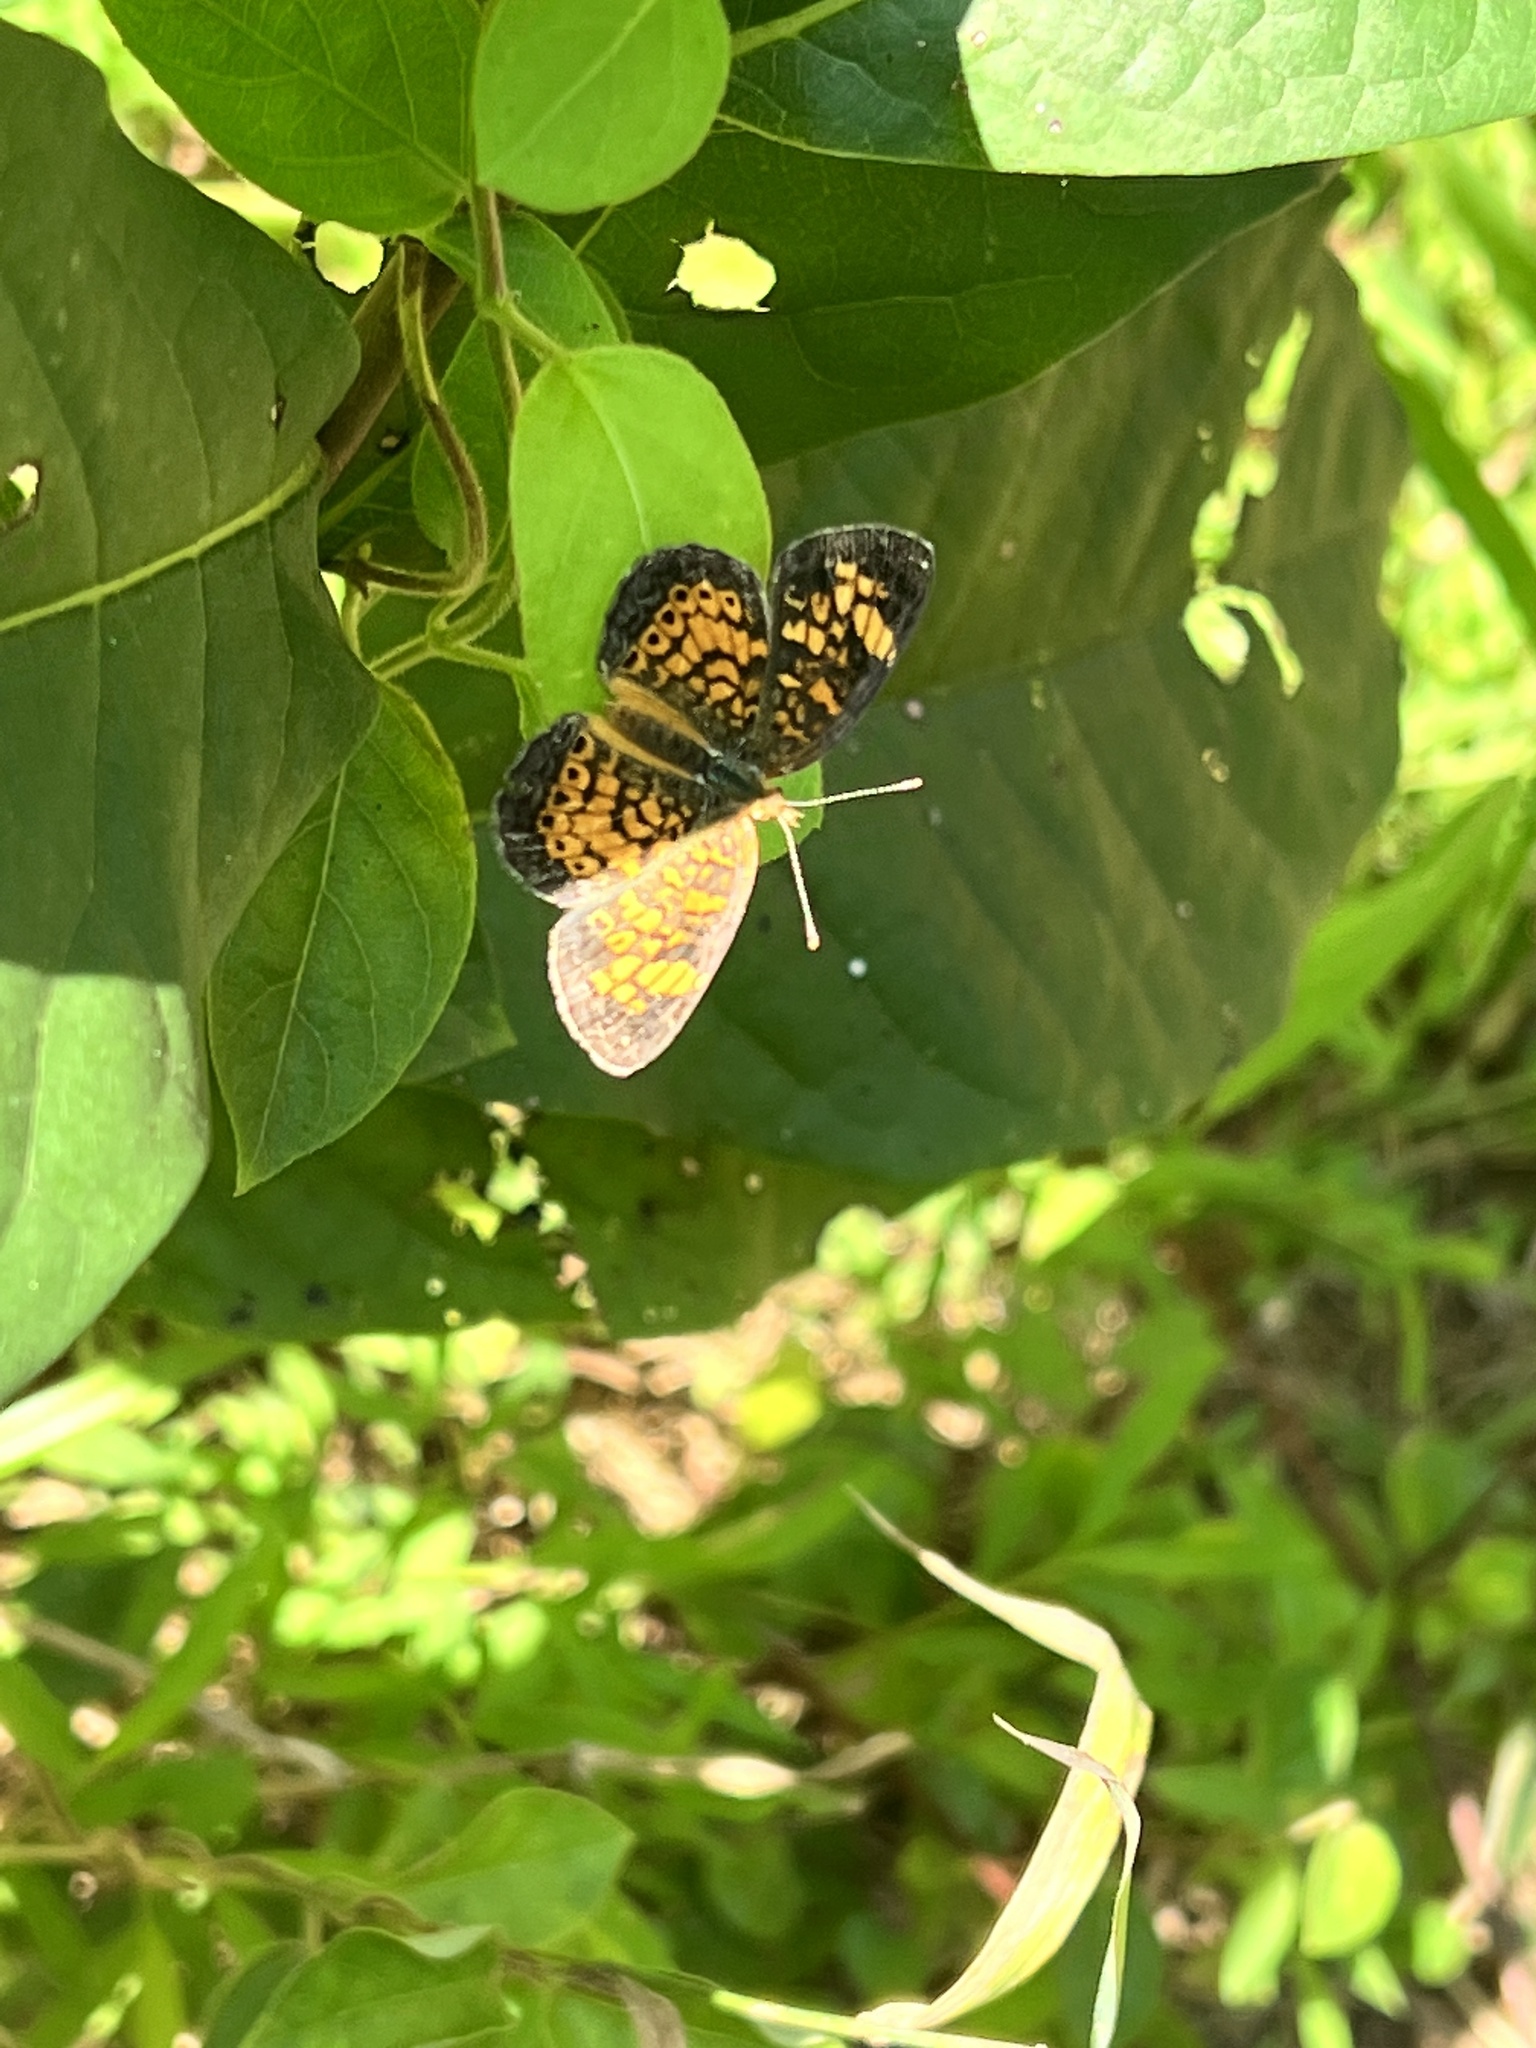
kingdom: Animalia
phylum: Arthropoda
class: Insecta
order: Lepidoptera
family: Nymphalidae
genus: Phyciodes
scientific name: Phyciodes tharos
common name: Pearl crescent
